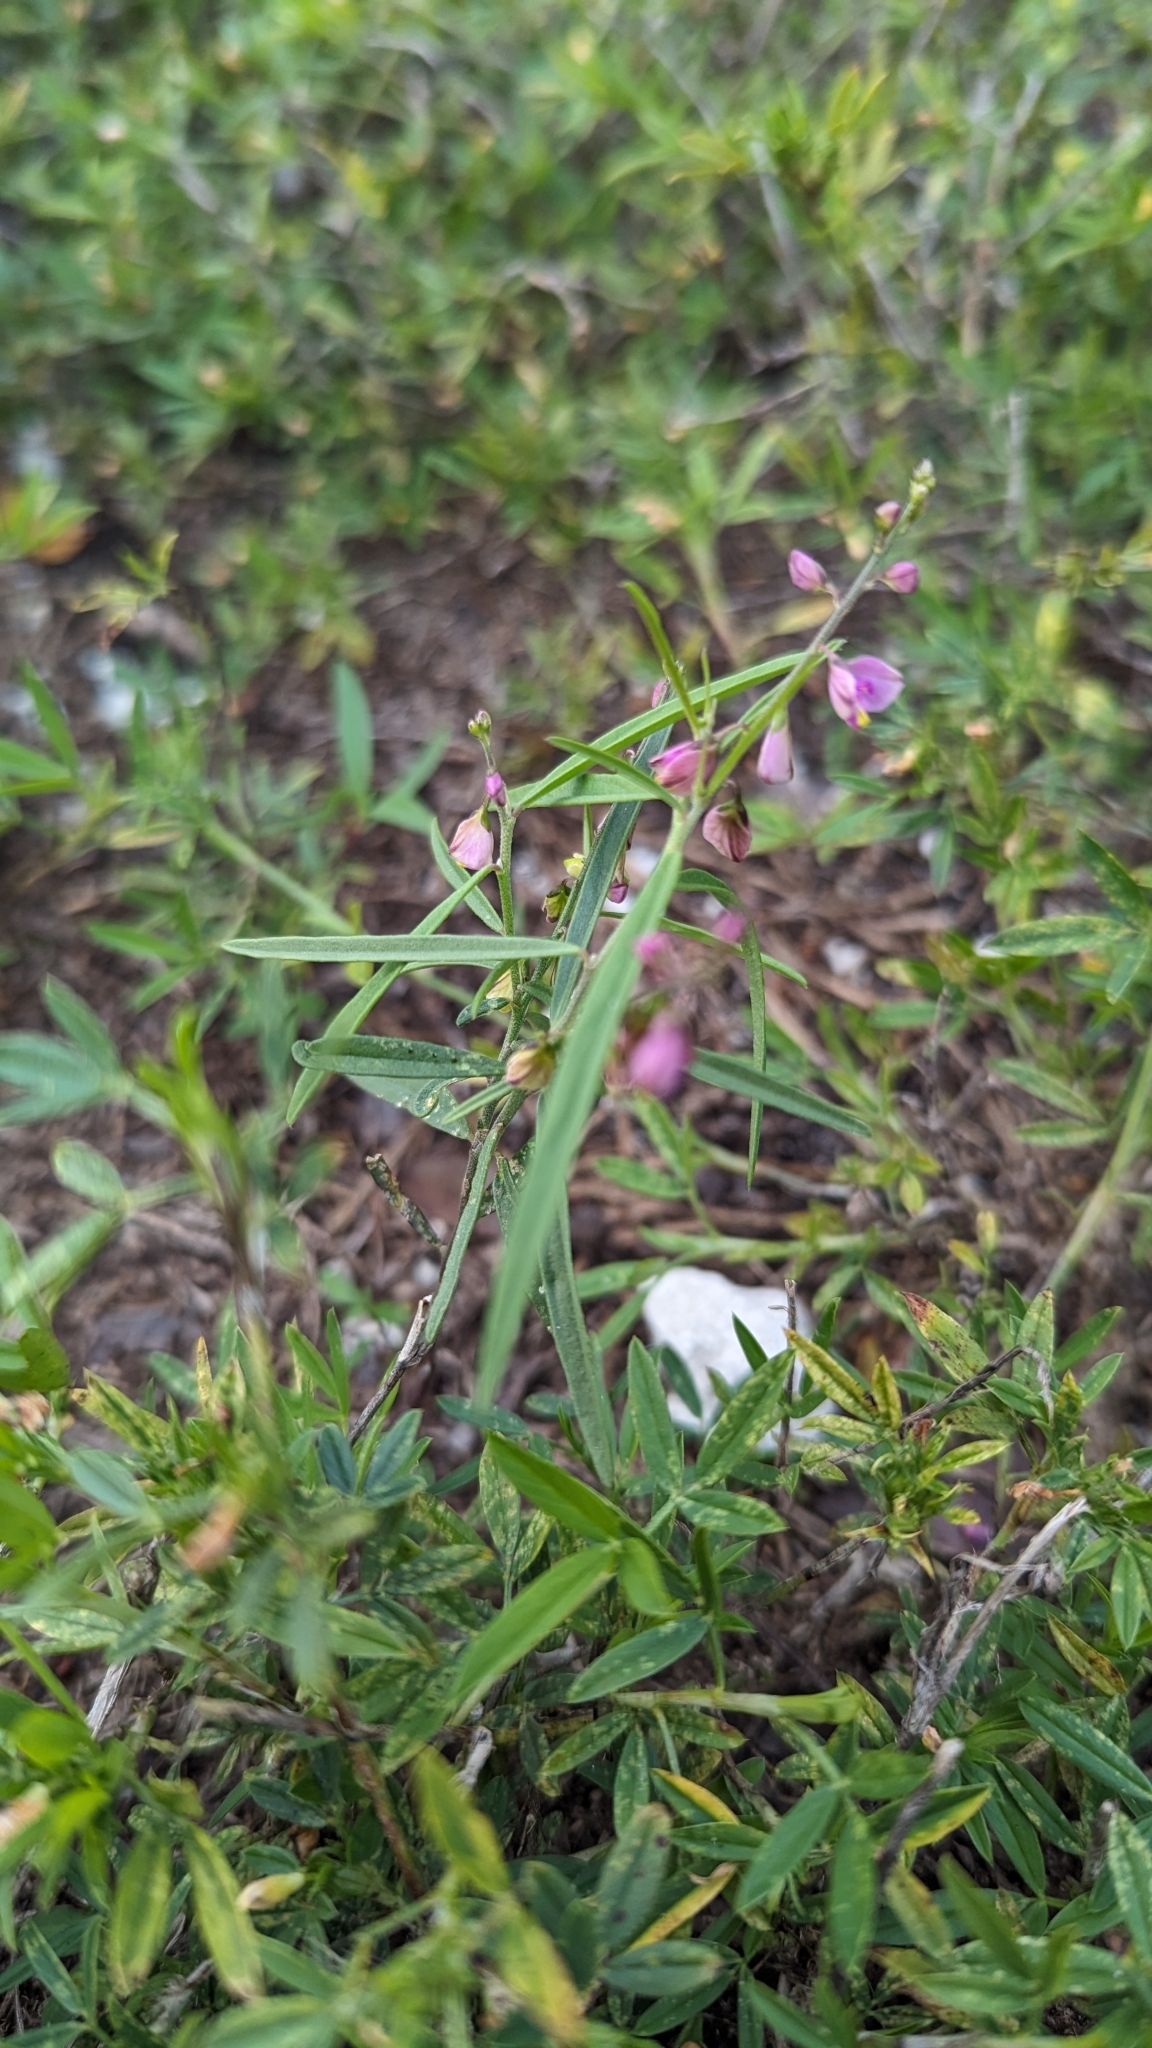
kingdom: Plantae
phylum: Tracheophyta
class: Magnoliopsida
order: Fabales
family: Polygalaceae
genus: Asemeia
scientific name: Asemeia grandiflora
